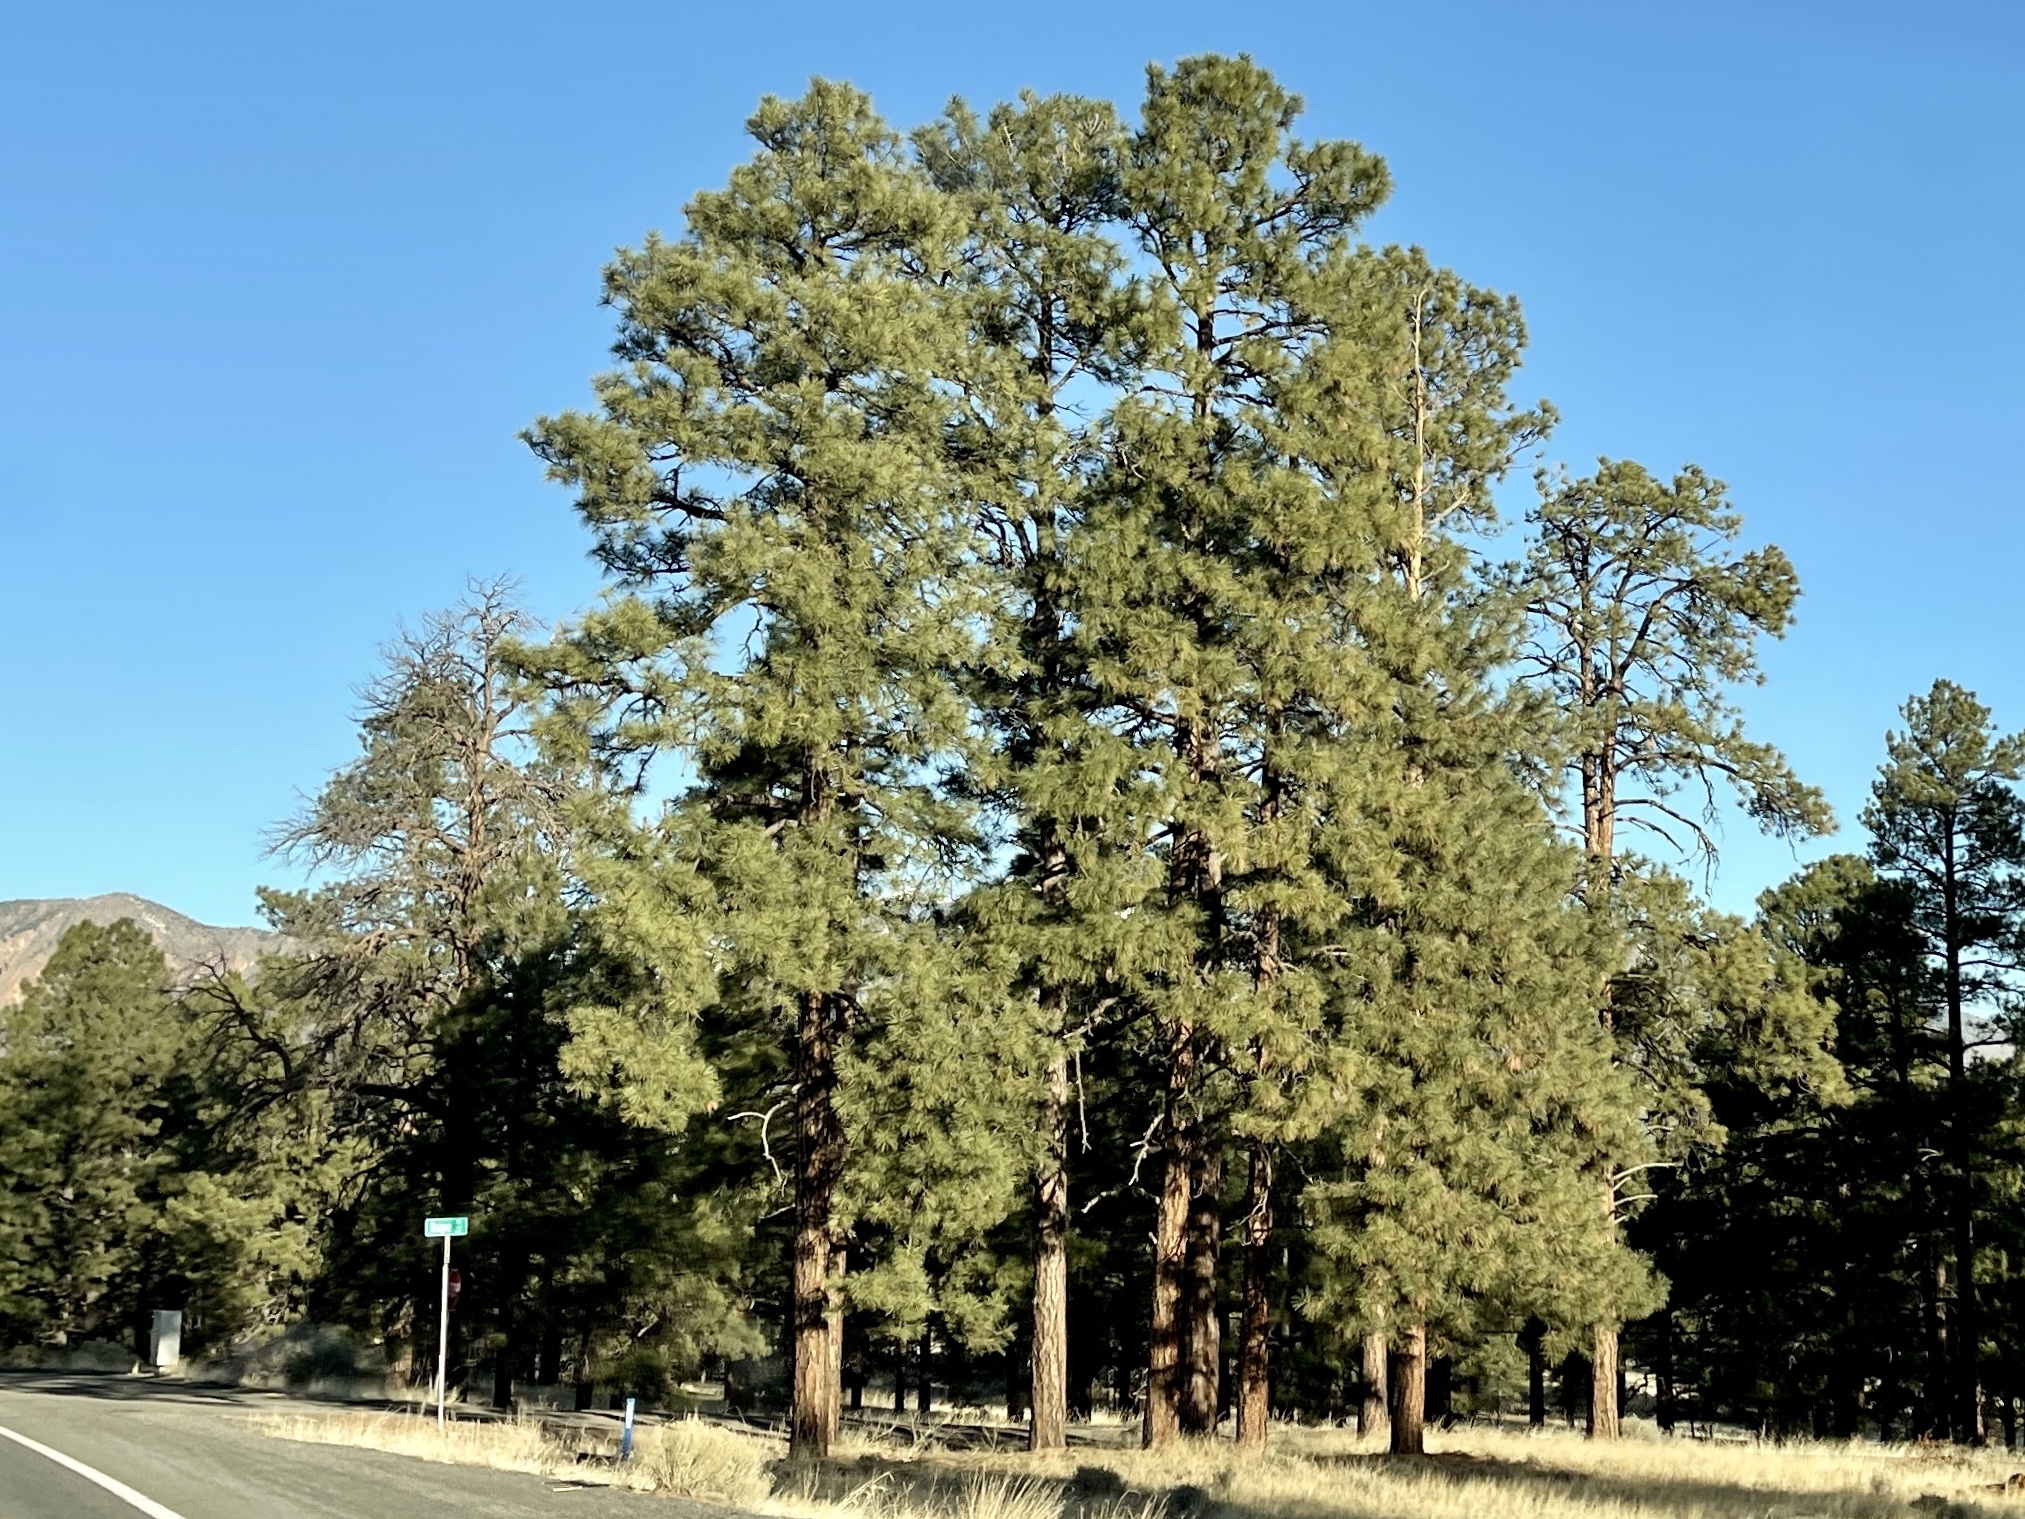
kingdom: Plantae
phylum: Tracheophyta
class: Pinopsida
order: Pinales
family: Pinaceae
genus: Pinus
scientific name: Pinus ponderosa
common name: Western yellow-pine
